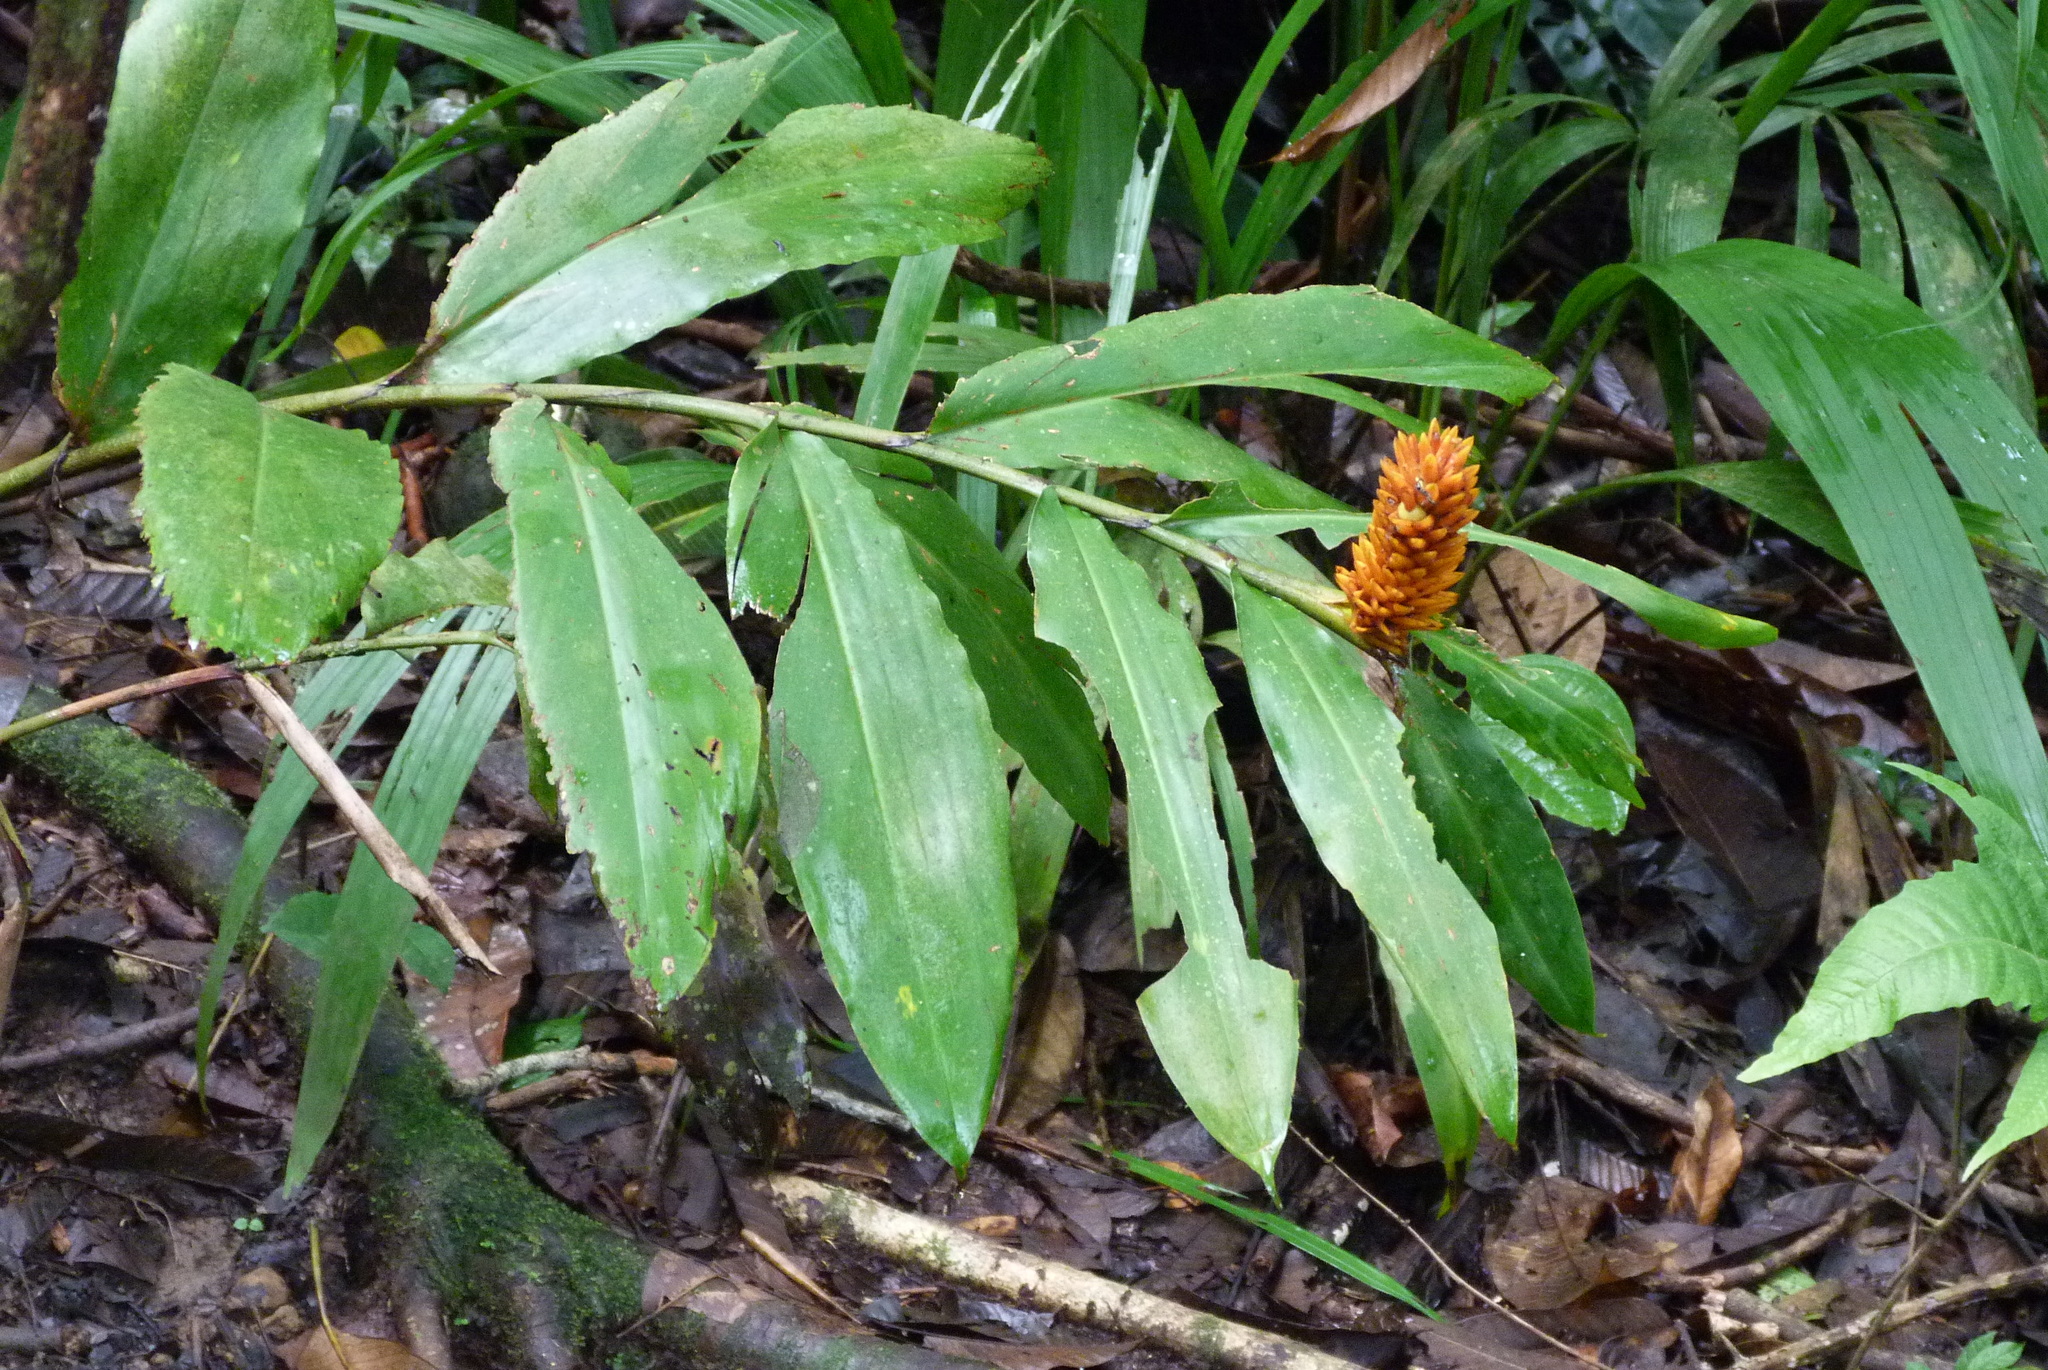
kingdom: Plantae
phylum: Tracheophyta
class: Liliopsida
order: Zingiberales
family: Zingiberaceae
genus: Renealmia
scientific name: Renealmia cernua
